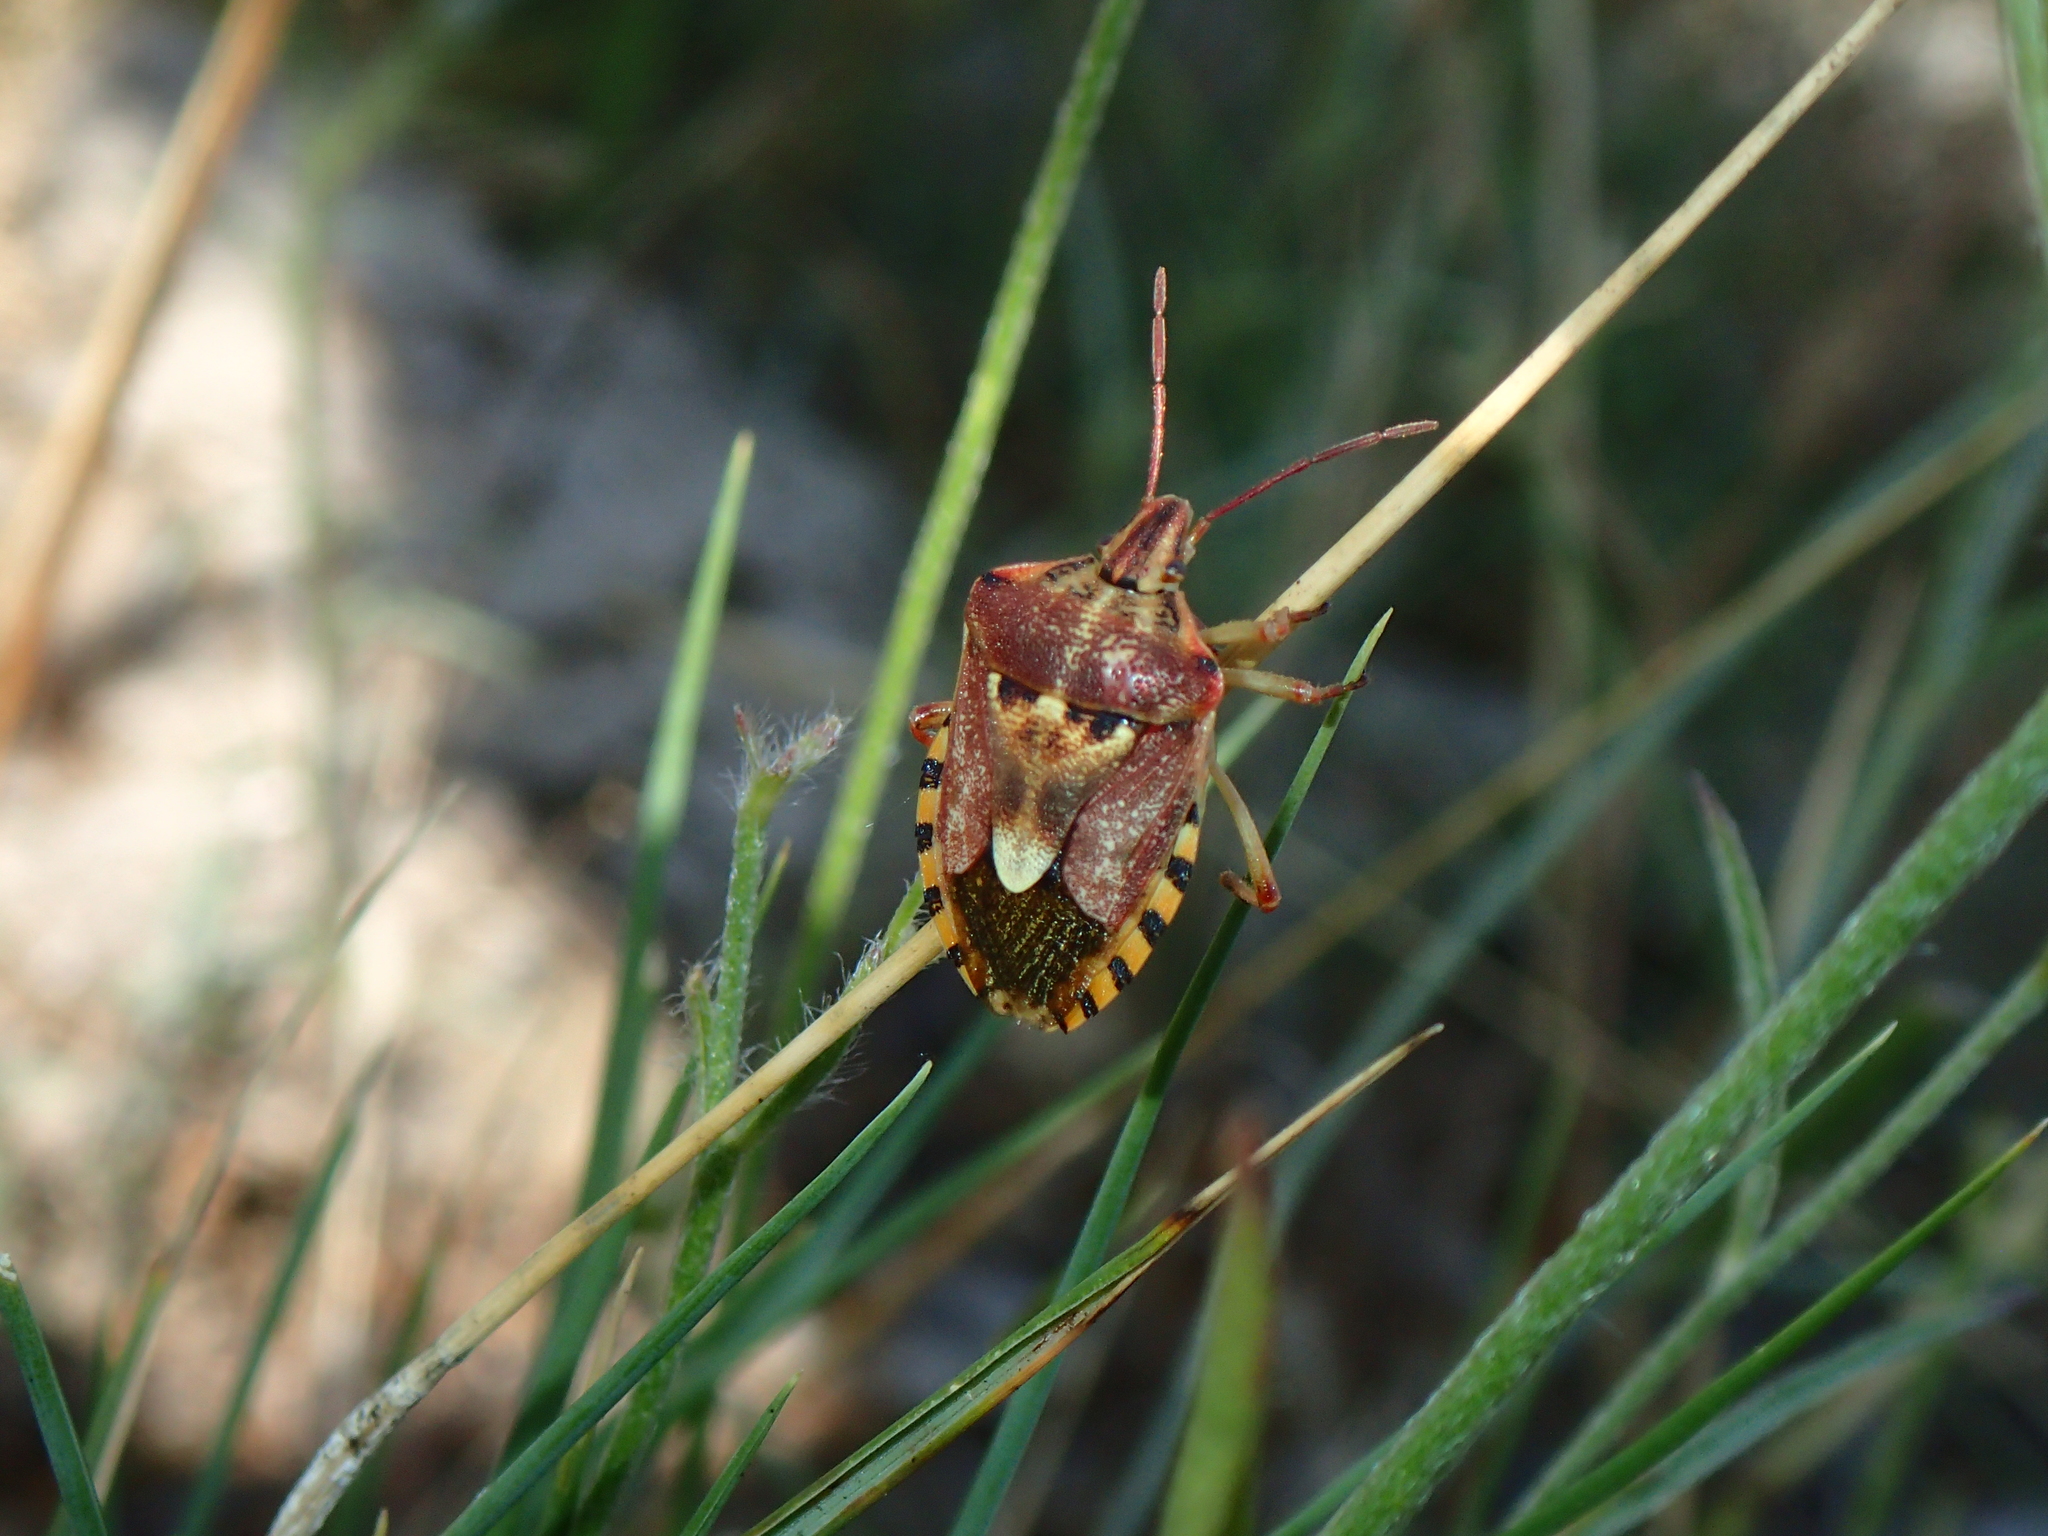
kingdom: Animalia
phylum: Arthropoda
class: Insecta
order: Hemiptera
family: Miridae
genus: Orthops
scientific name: Orthops kalmii
